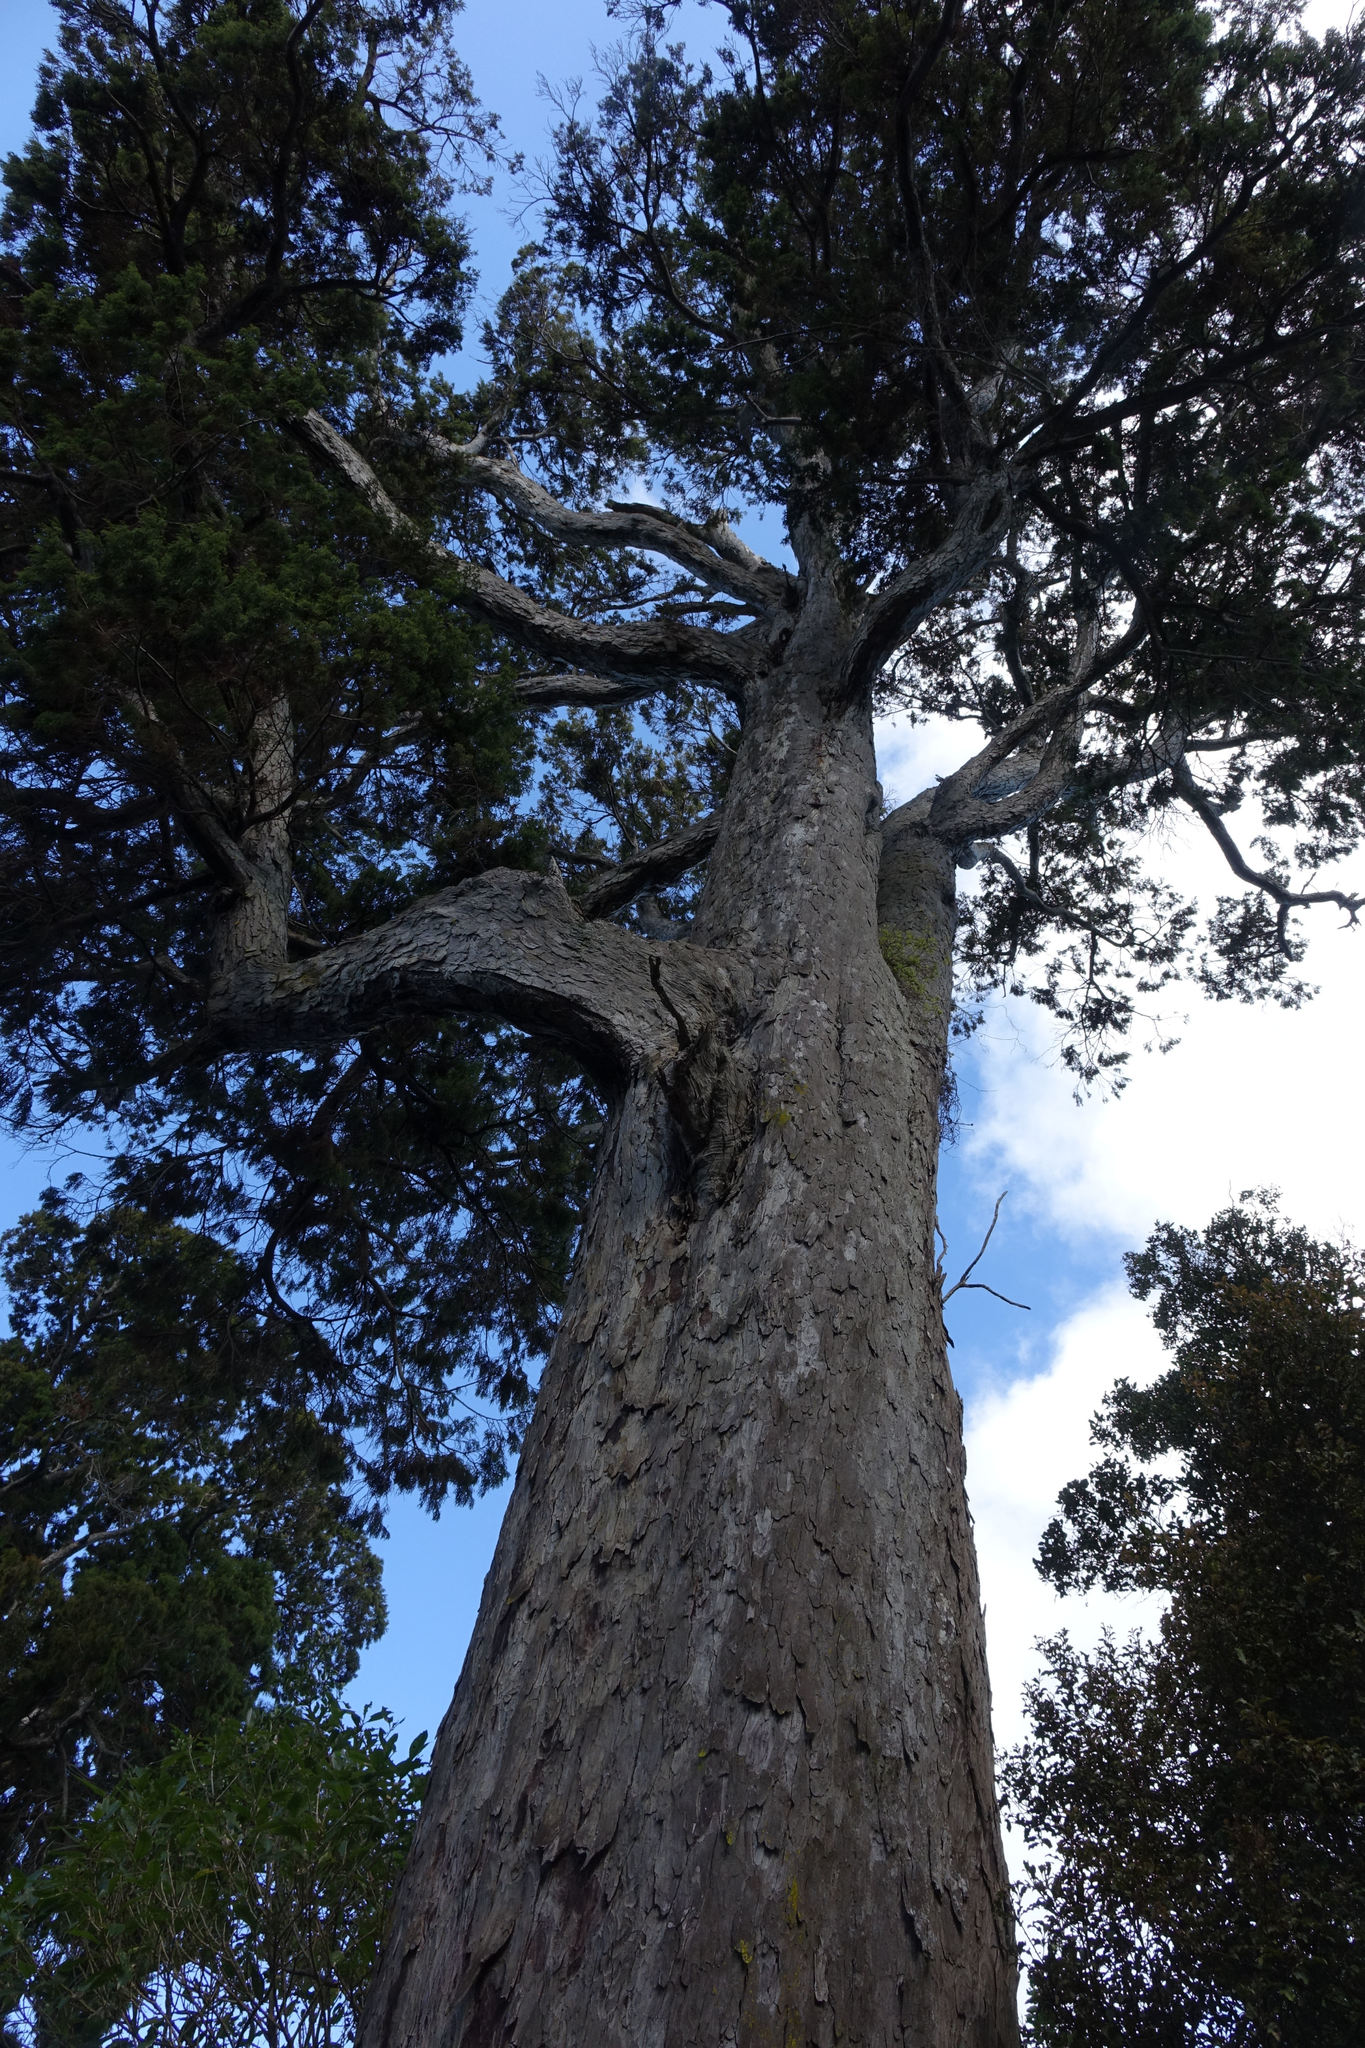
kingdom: Plantae
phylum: Tracheophyta
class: Pinopsida
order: Pinales
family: Podocarpaceae
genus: Dacrydium
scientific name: Dacrydium cupressinum
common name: Red pine
